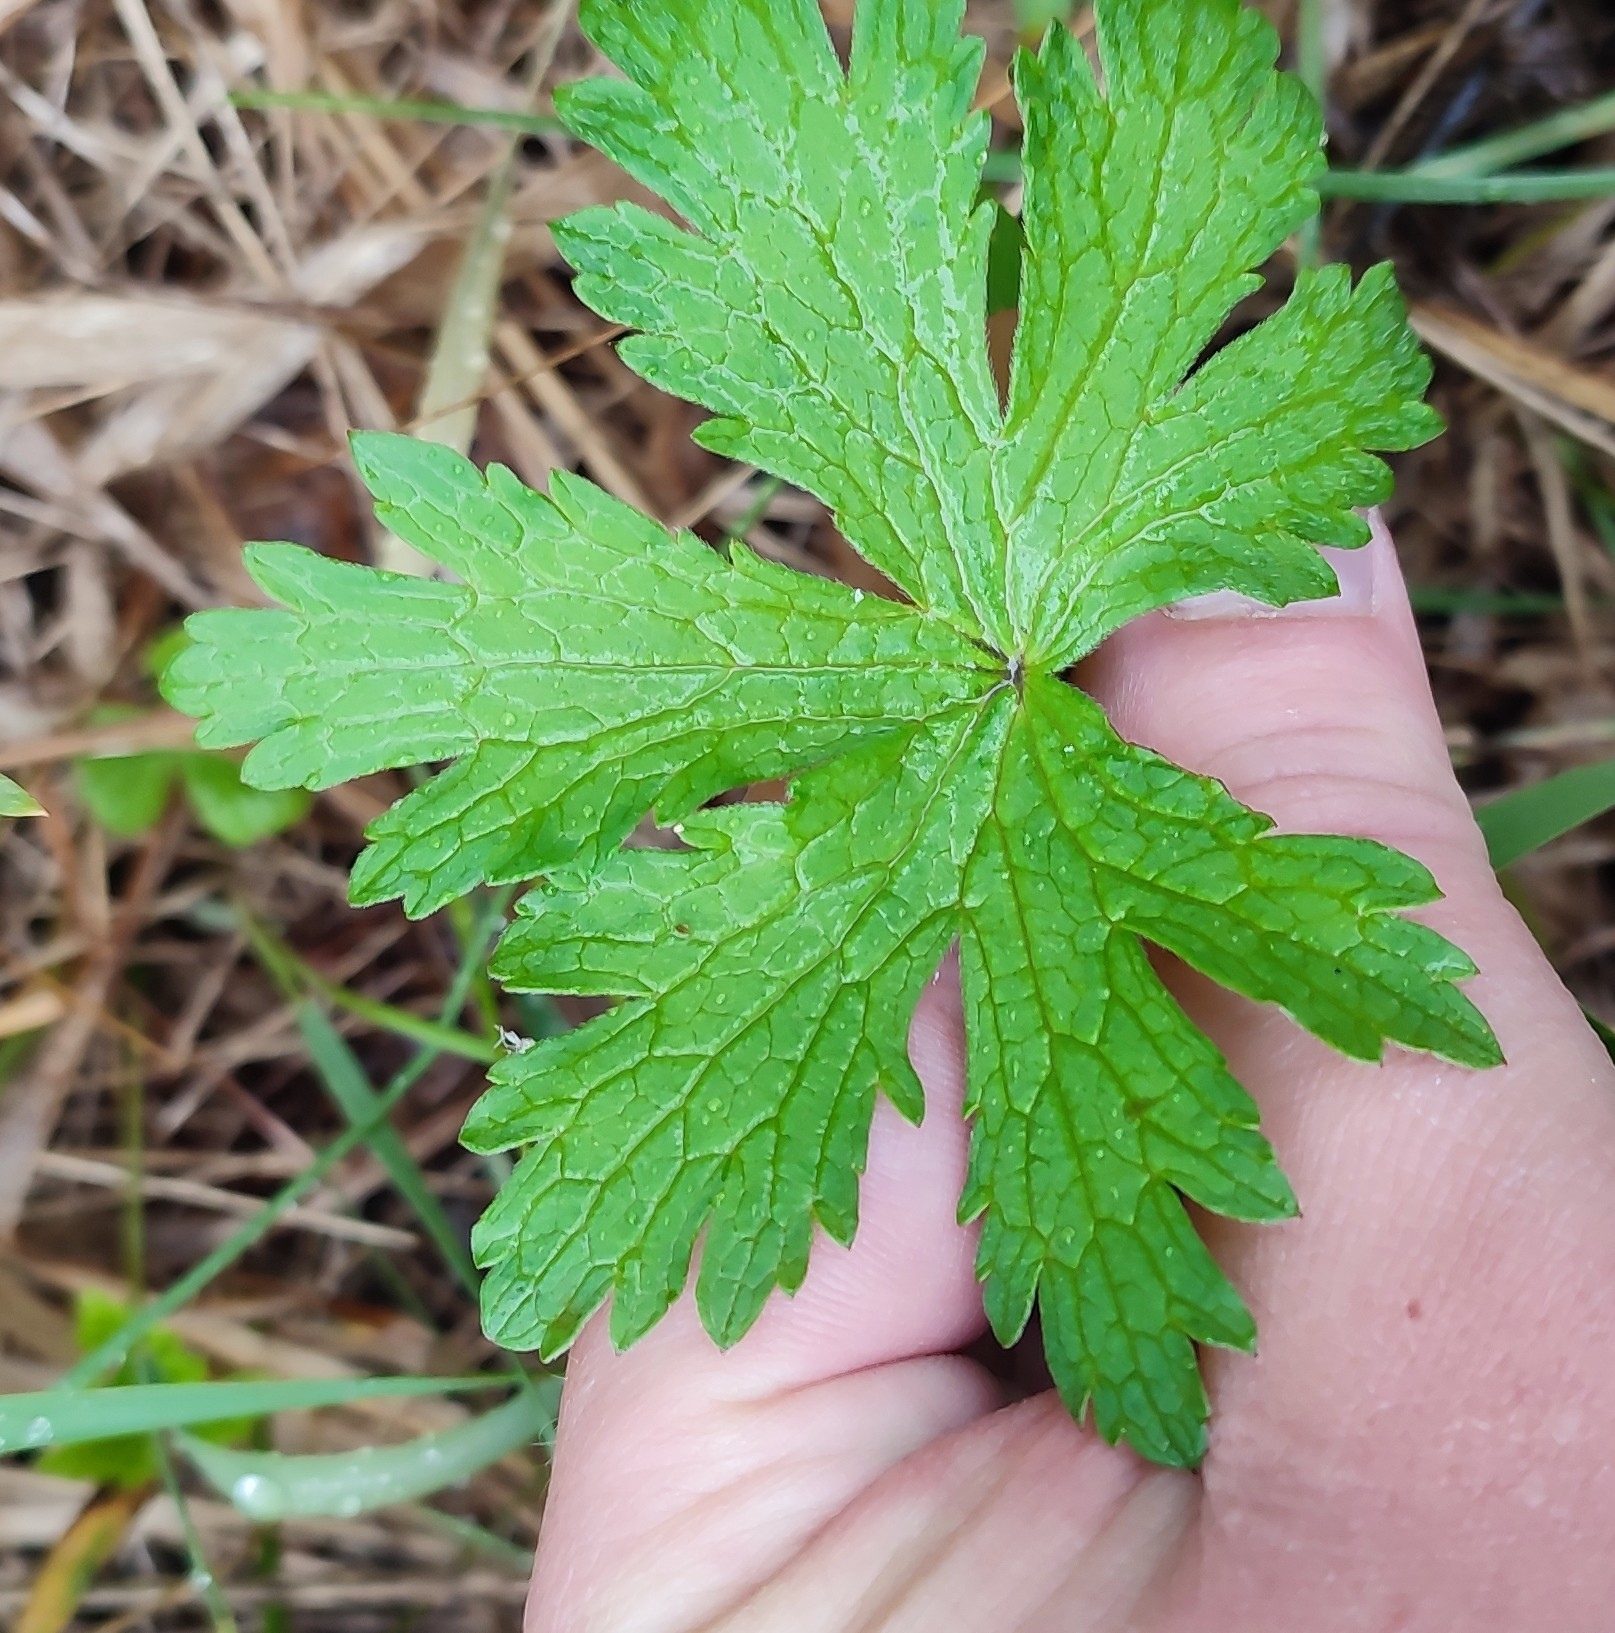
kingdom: Plantae
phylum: Tracheophyta
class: Magnoliopsida
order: Geraniales
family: Geraniaceae
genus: Geranium
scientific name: Geranium sylvaticum
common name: Wood crane's-bill
